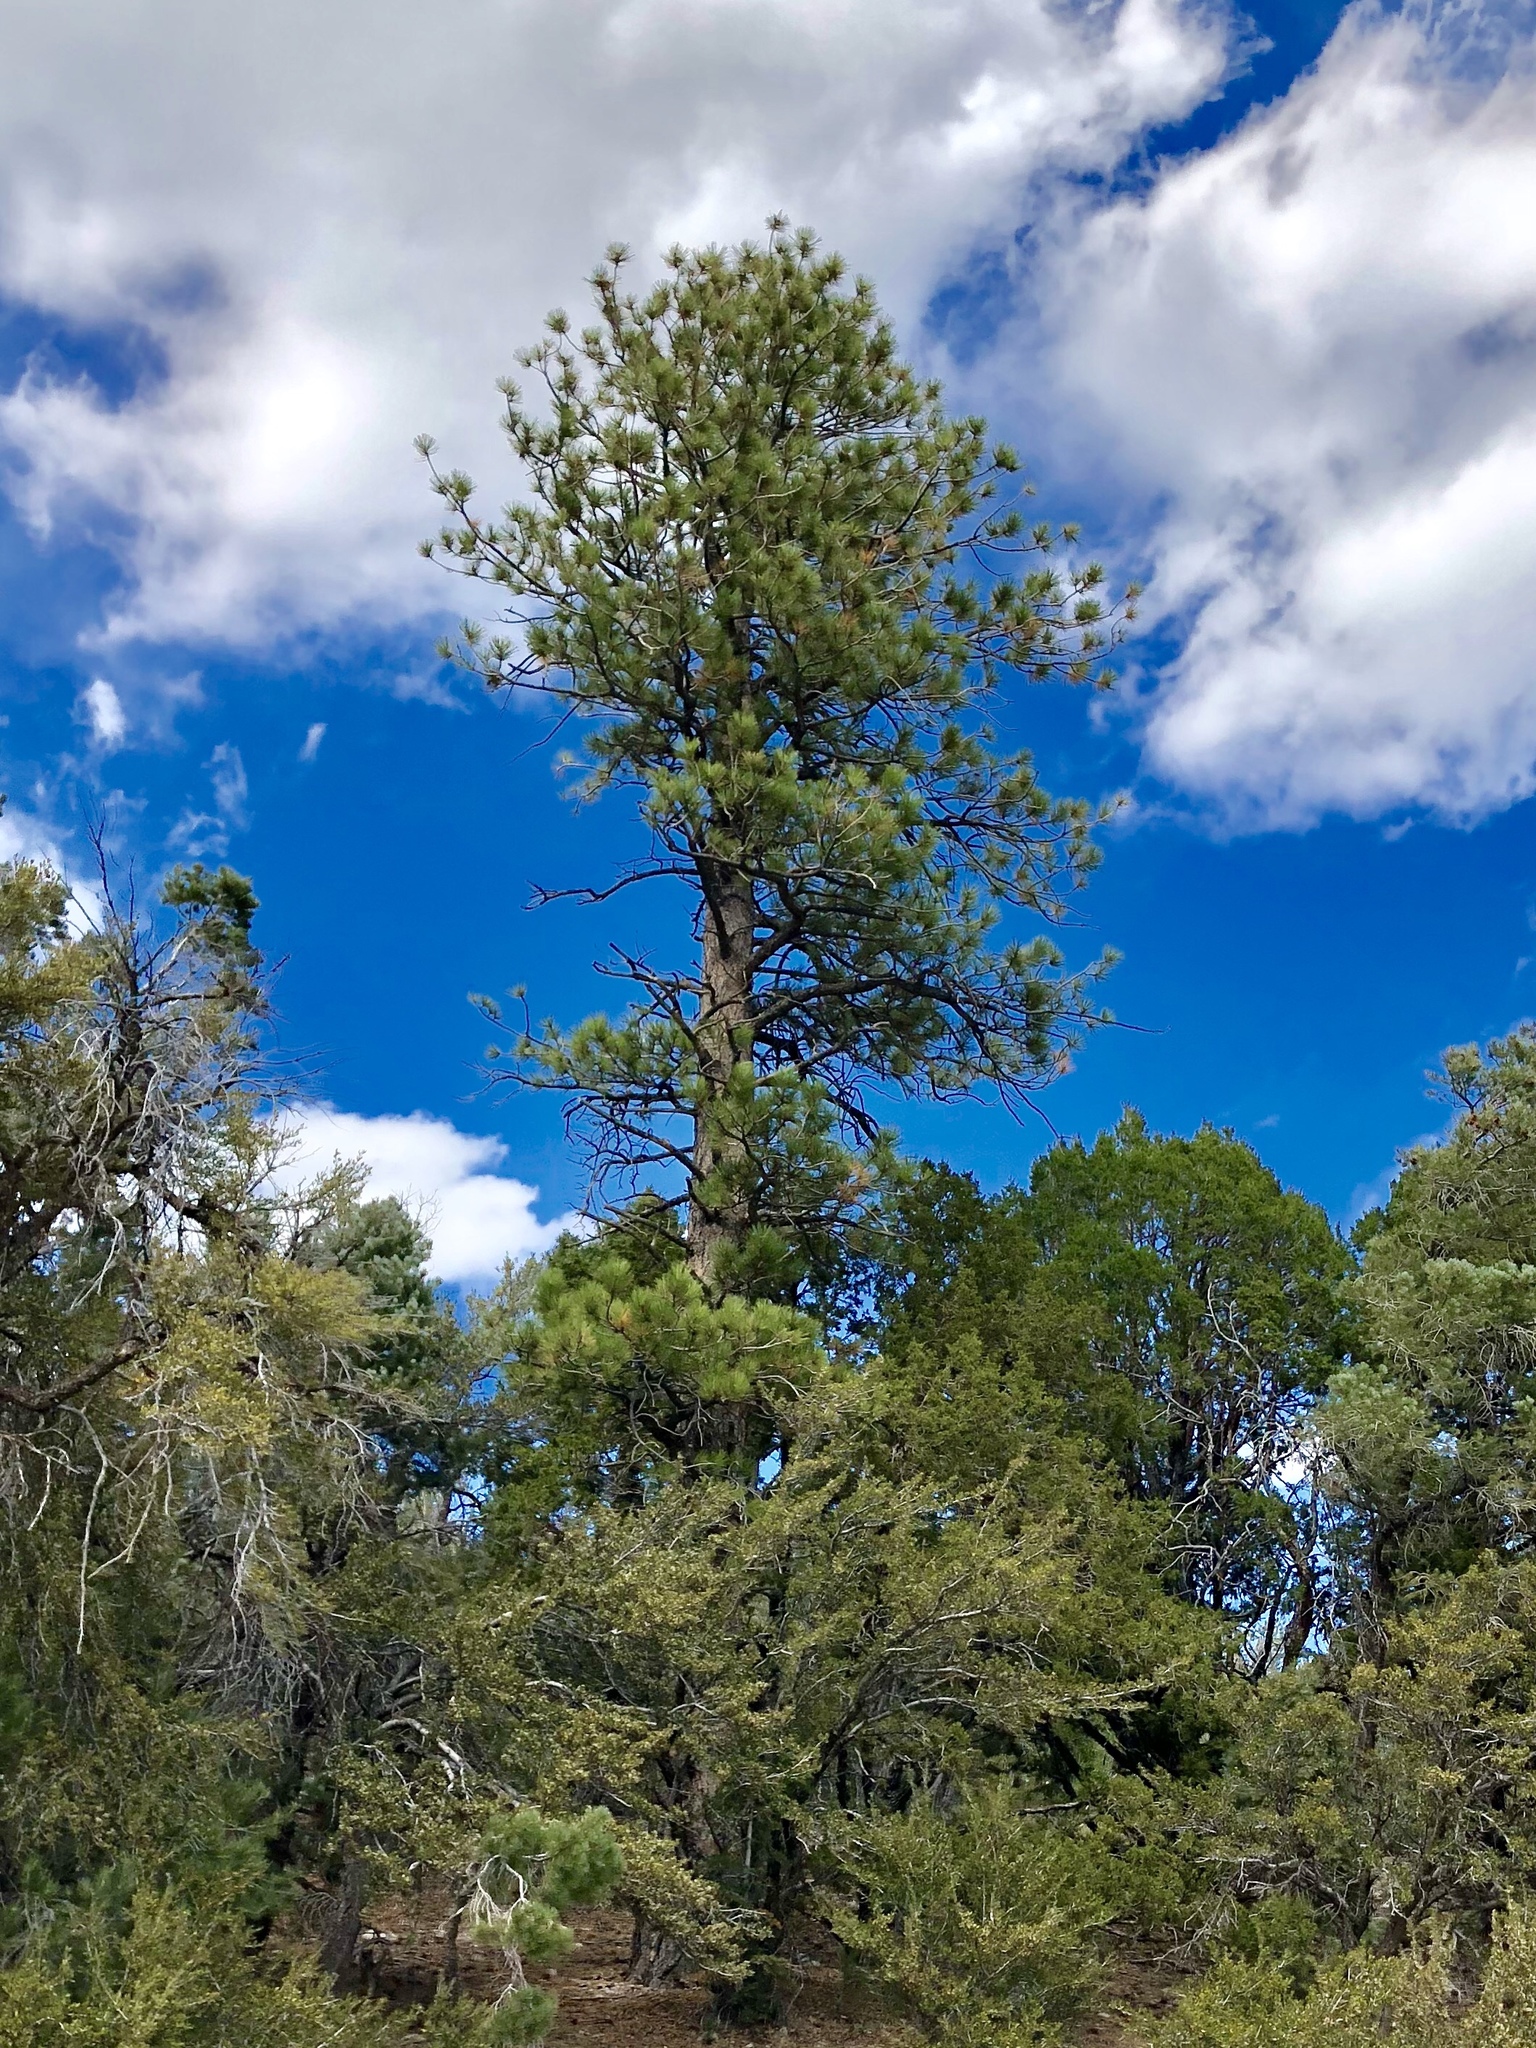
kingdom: Plantae
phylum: Tracheophyta
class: Pinopsida
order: Pinales
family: Pinaceae
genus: Pinus
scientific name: Pinus ponderosa
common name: Western yellow-pine
